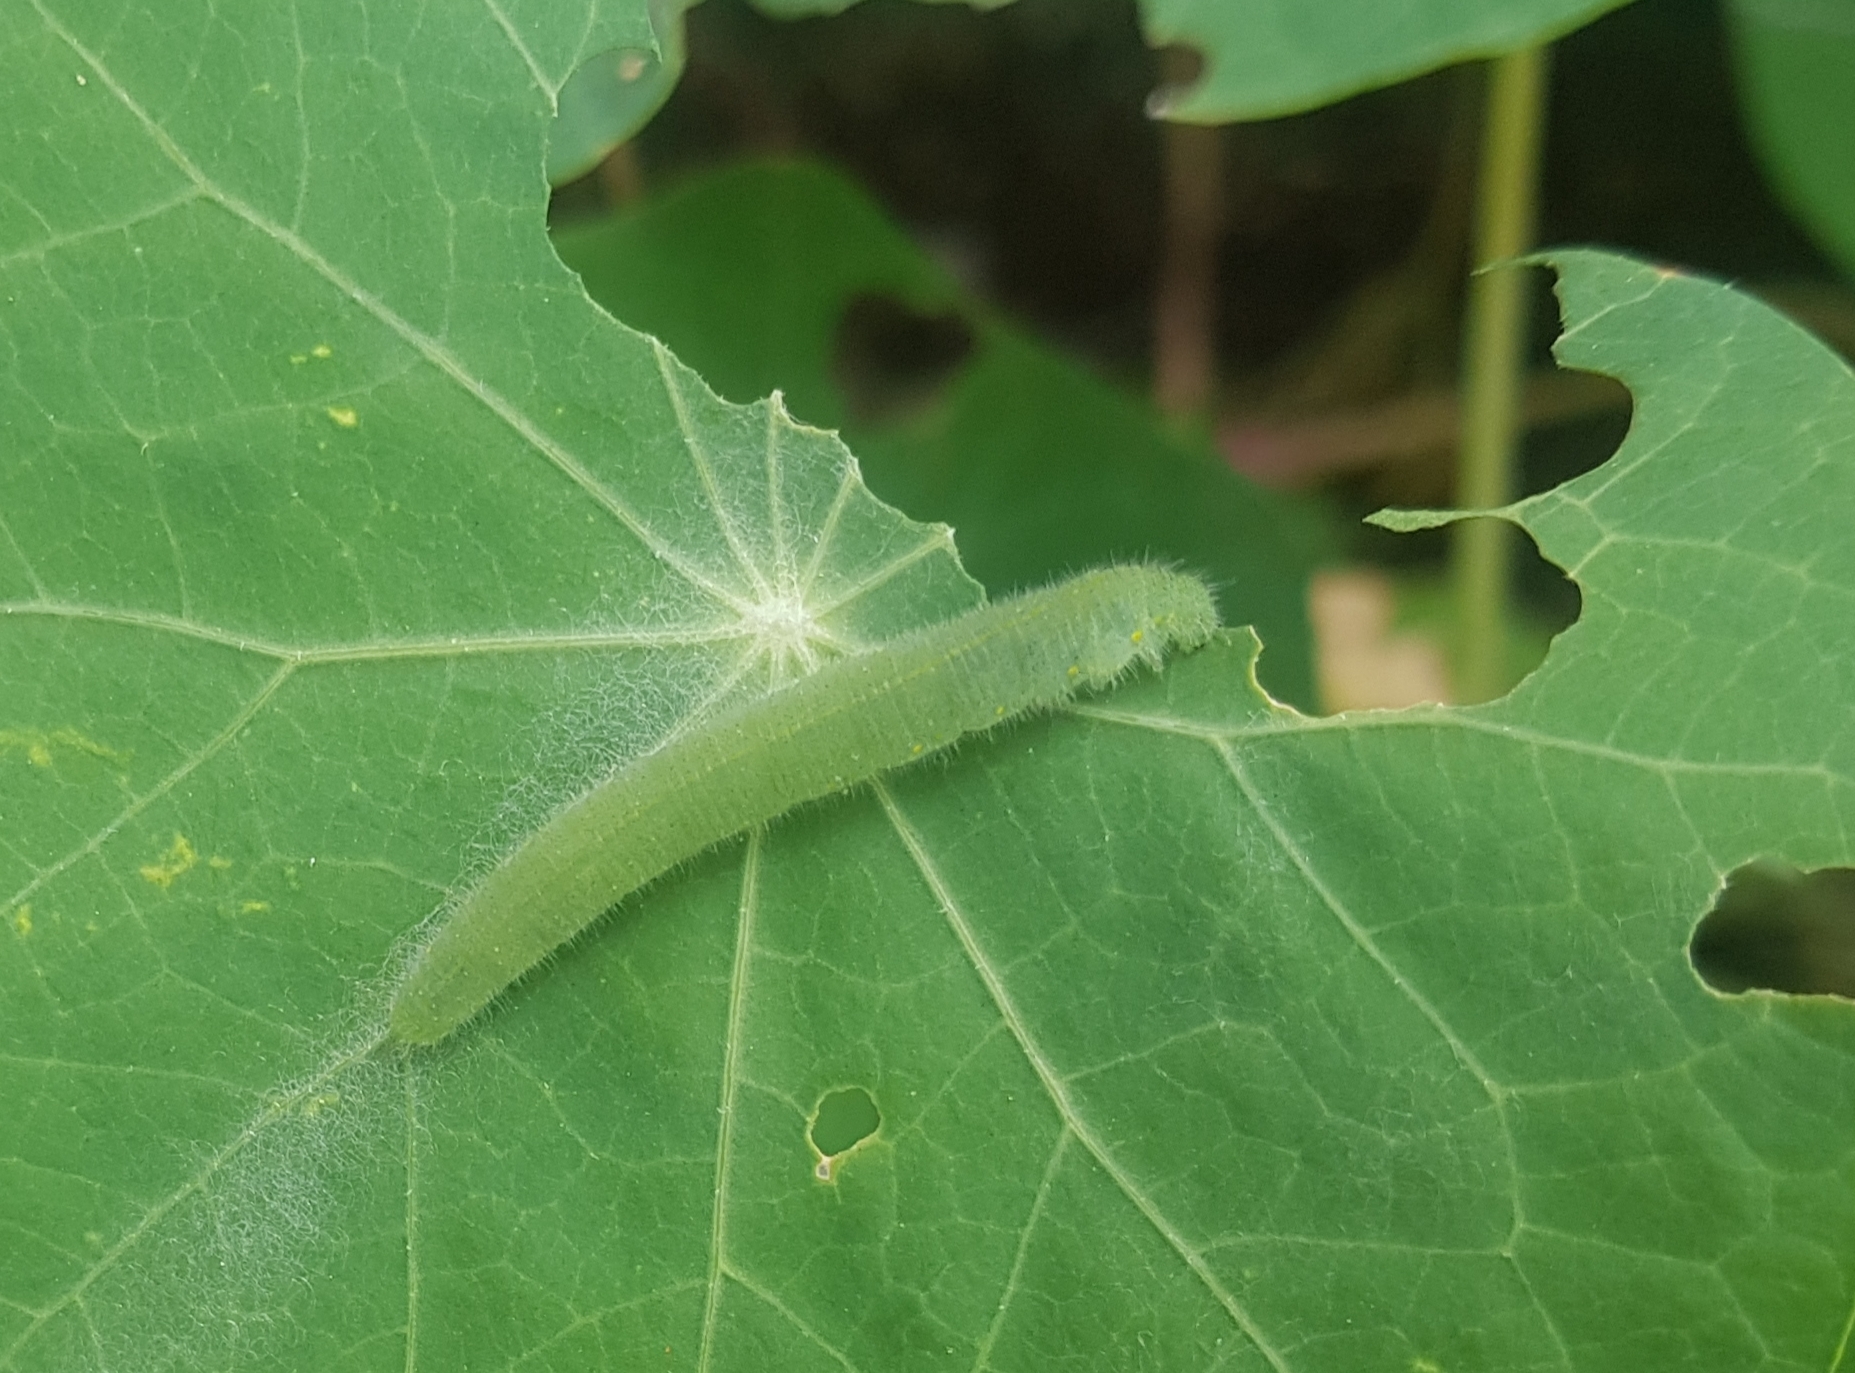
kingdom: Animalia
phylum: Arthropoda
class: Insecta
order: Lepidoptera
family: Pieridae
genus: Pieris
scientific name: Pieris rapae
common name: Small white
